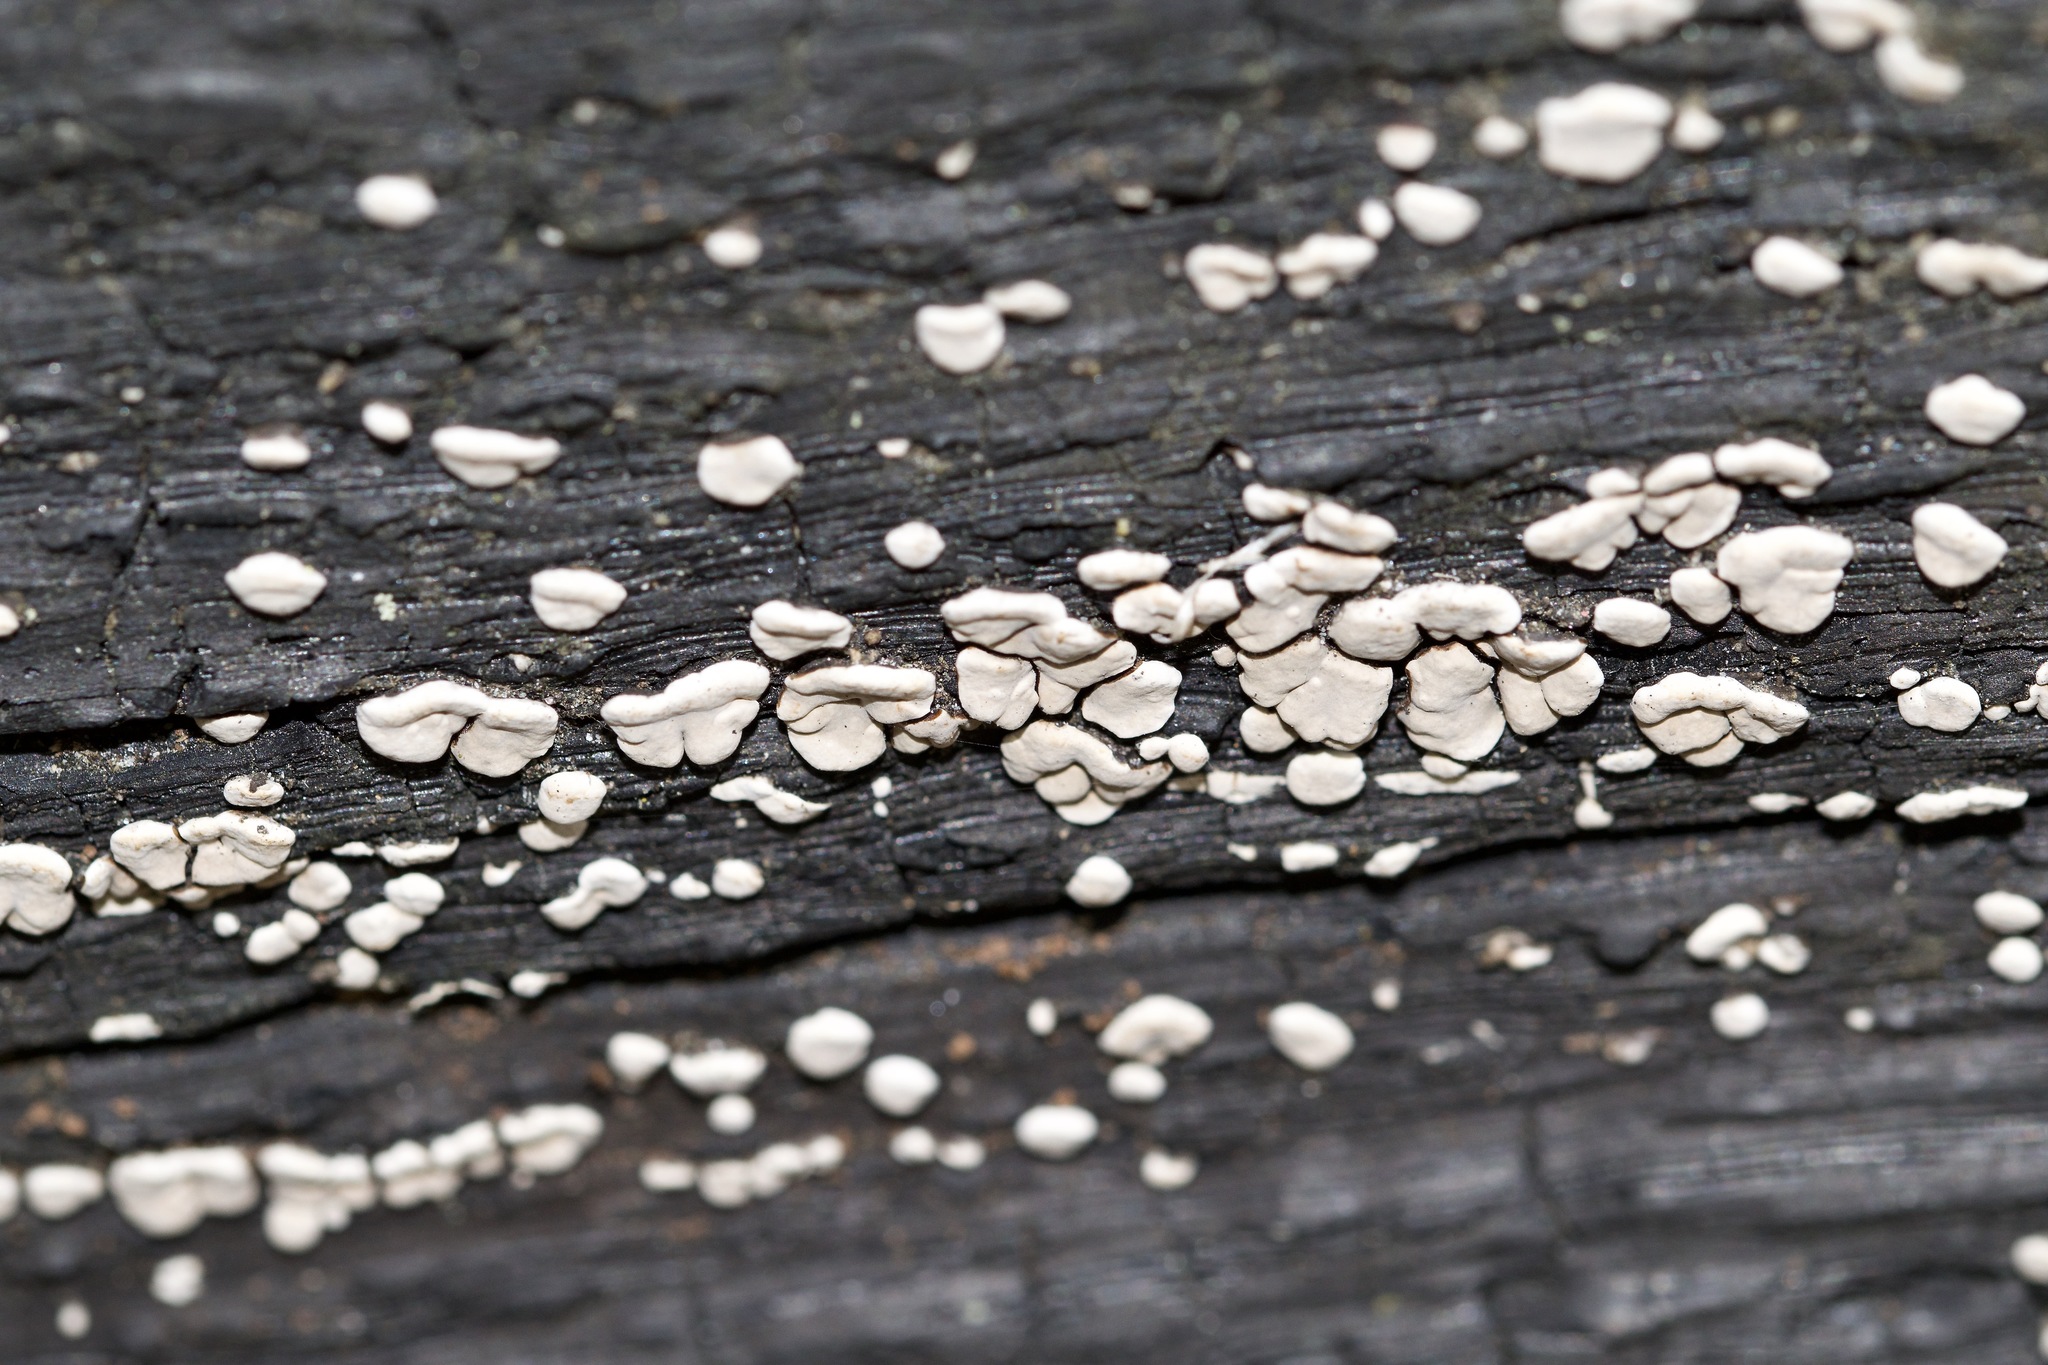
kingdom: Fungi
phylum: Basidiomycota
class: Agaricomycetes
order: Russulales
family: Stereaceae
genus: Xylobolus
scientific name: Xylobolus frustulatus
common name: Ceramic parchment
